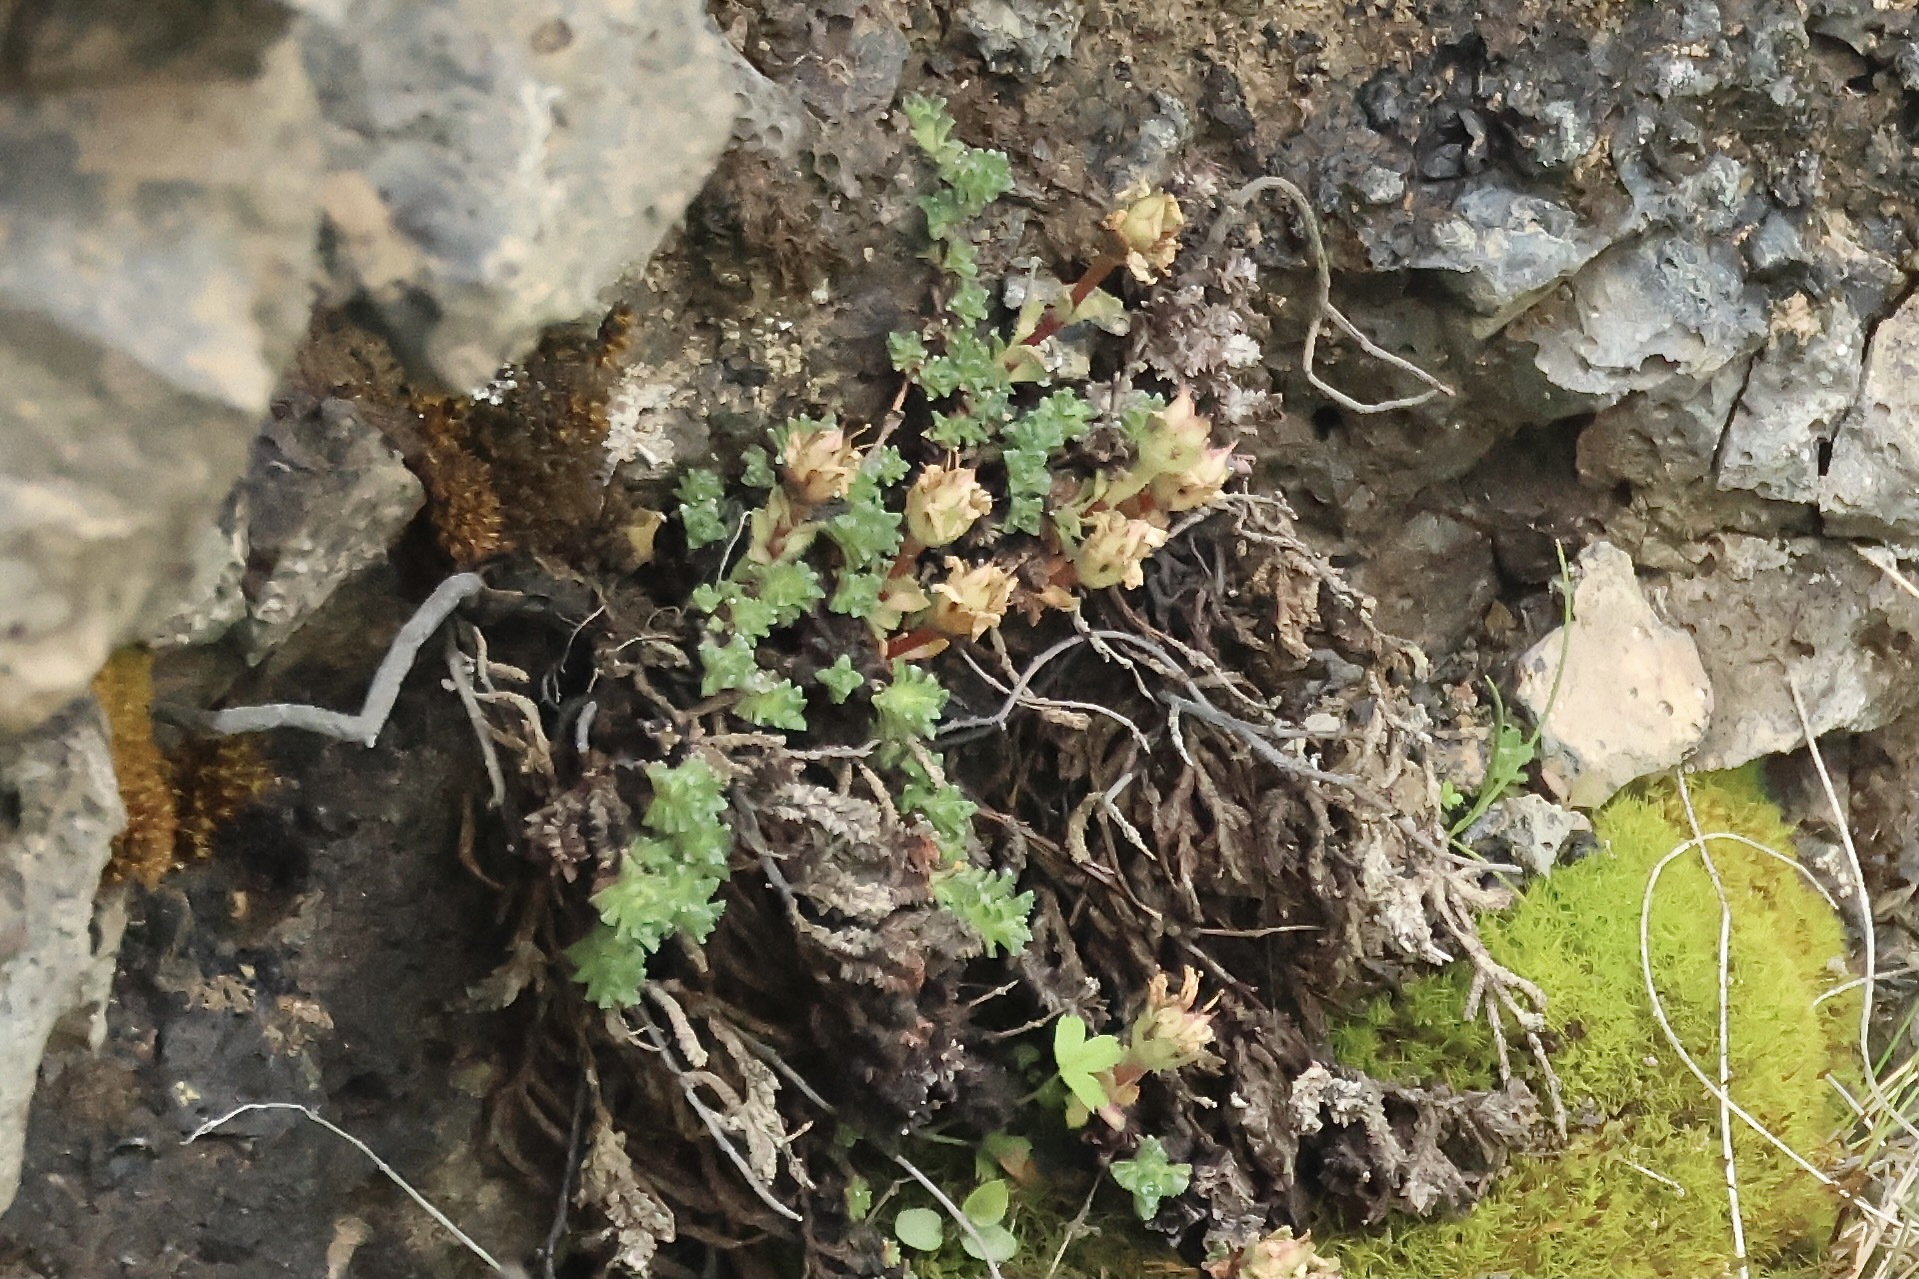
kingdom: Plantae
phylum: Tracheophyta
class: Magnoliopsida
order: Saxifragales
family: Saxifragaceae
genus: Saxifraga
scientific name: Saxifraga oppositifolia
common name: Purple saxifrage
